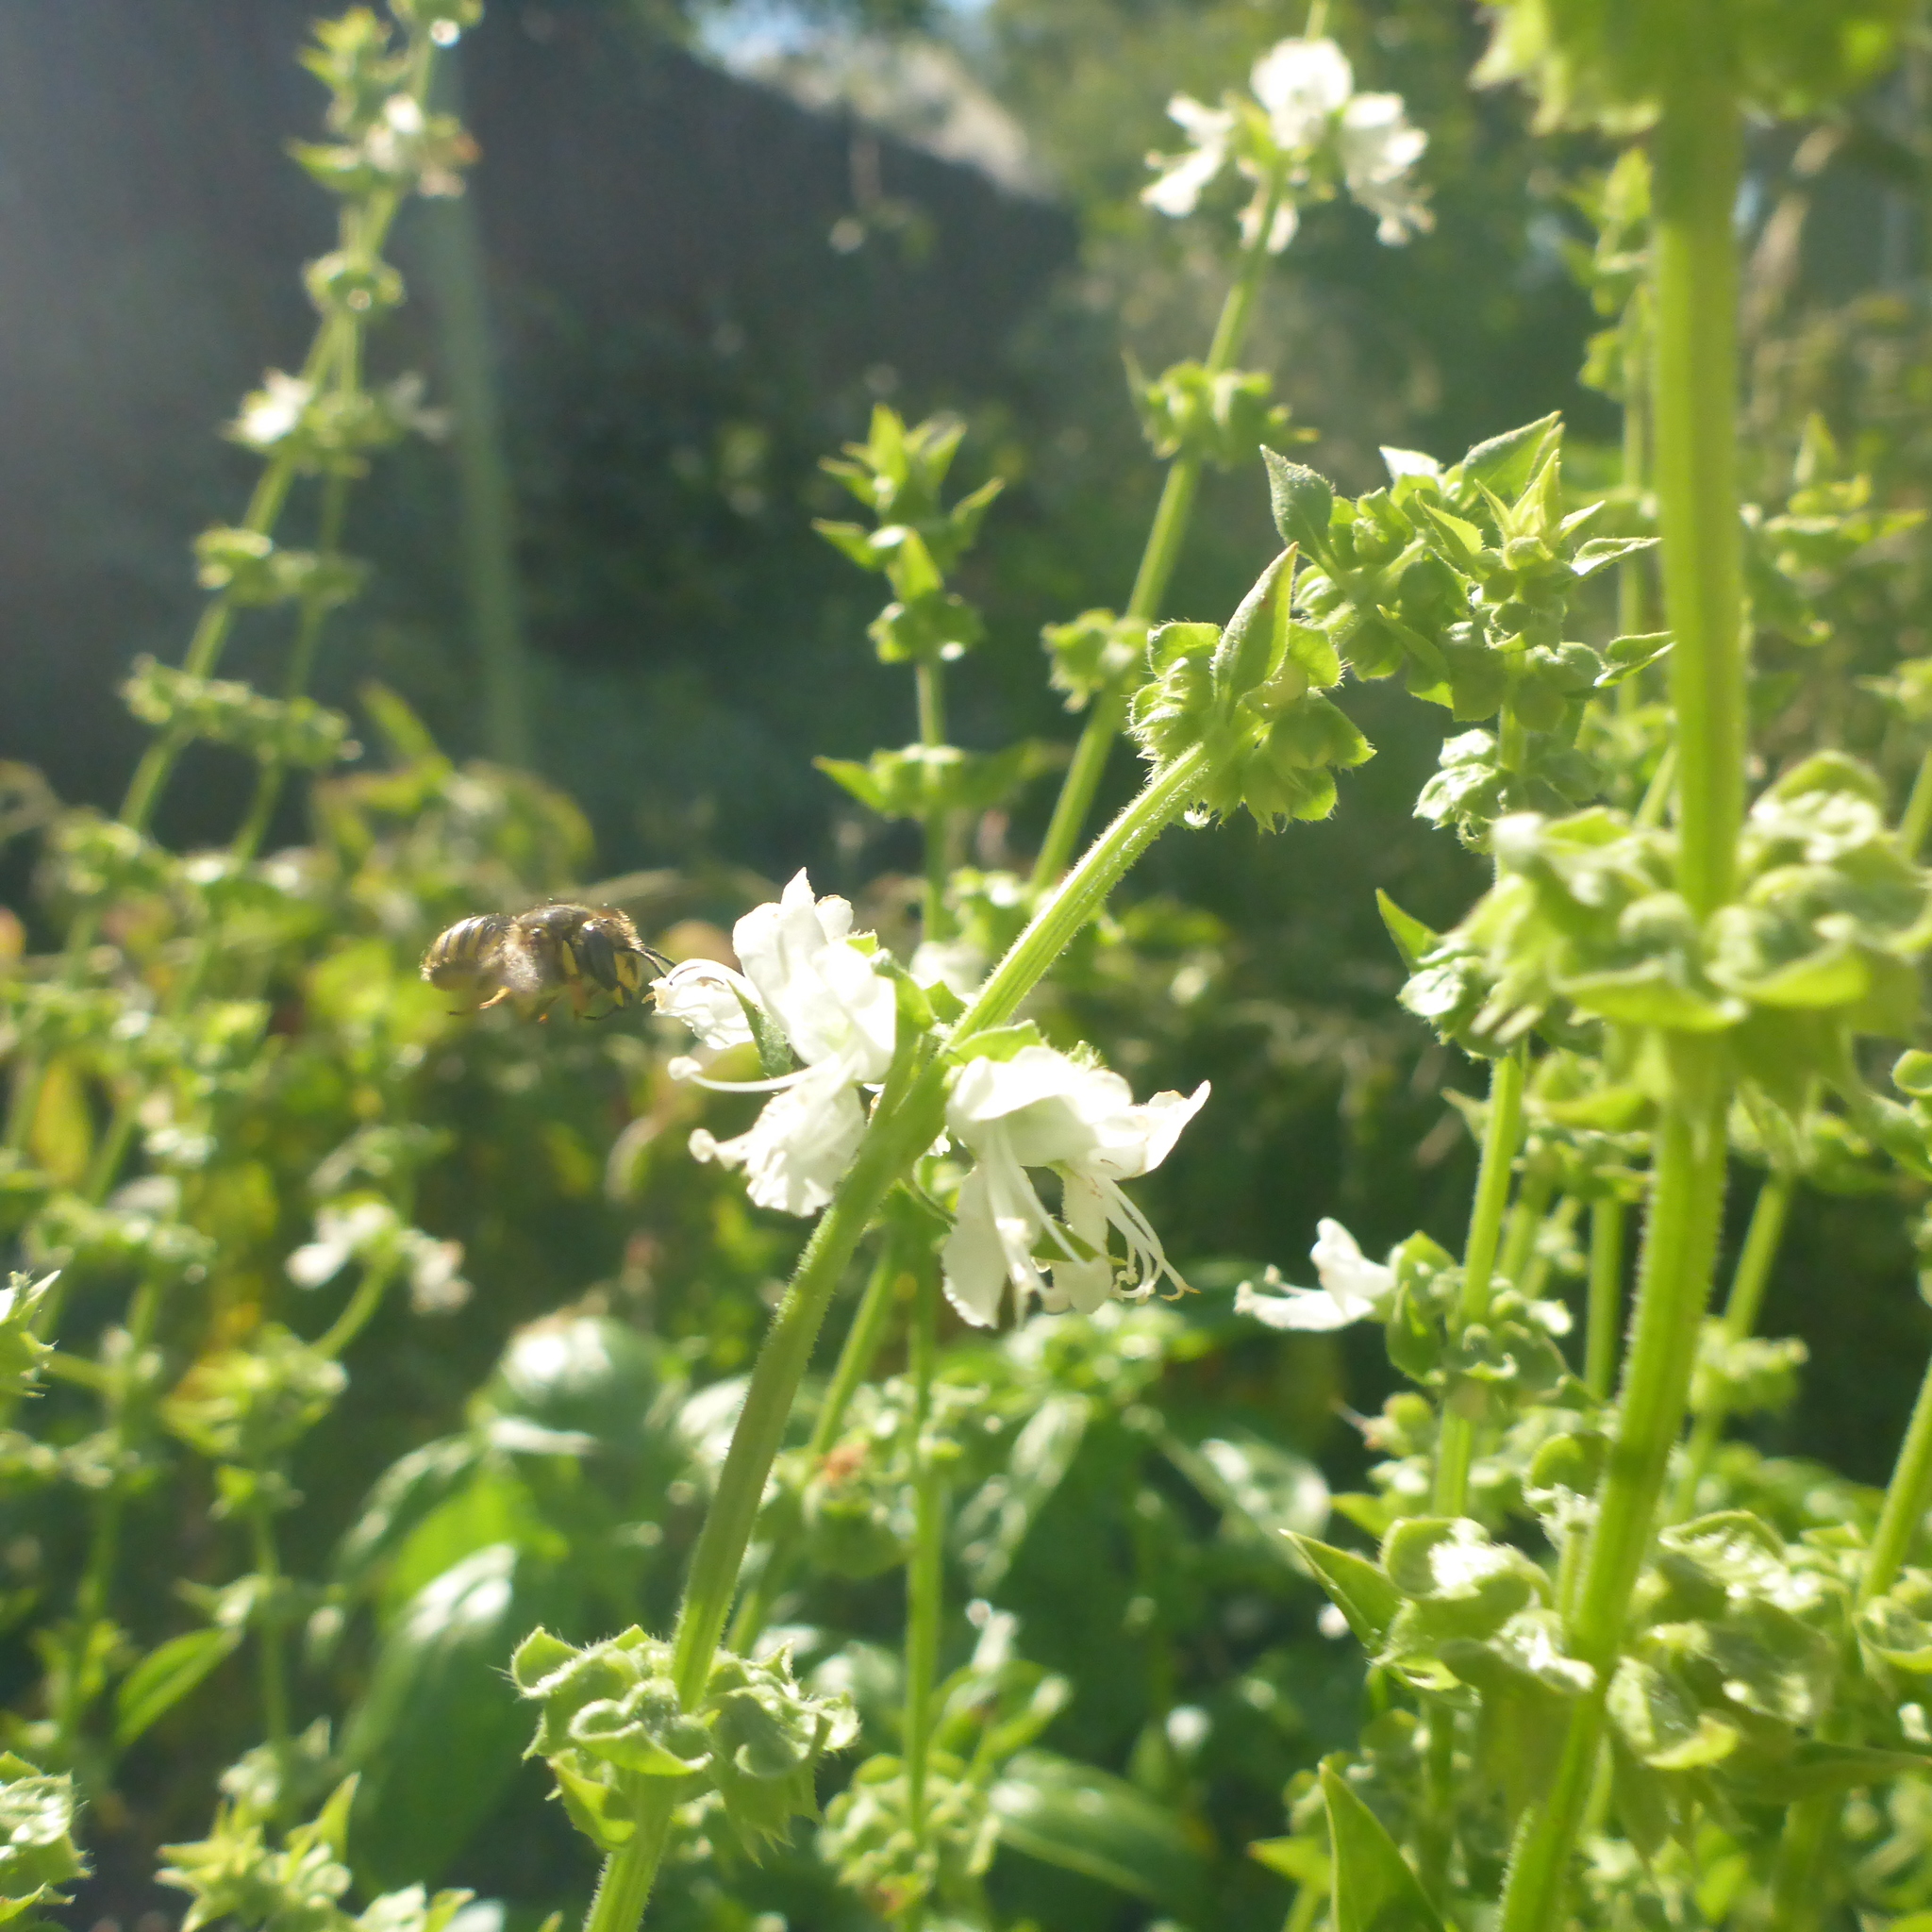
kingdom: Animalia
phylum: Arthropoda
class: Insecta
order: Hymenoptera
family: Megachilidae
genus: Anthidium
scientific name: Anthidium manicatum
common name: Wool carder bee
